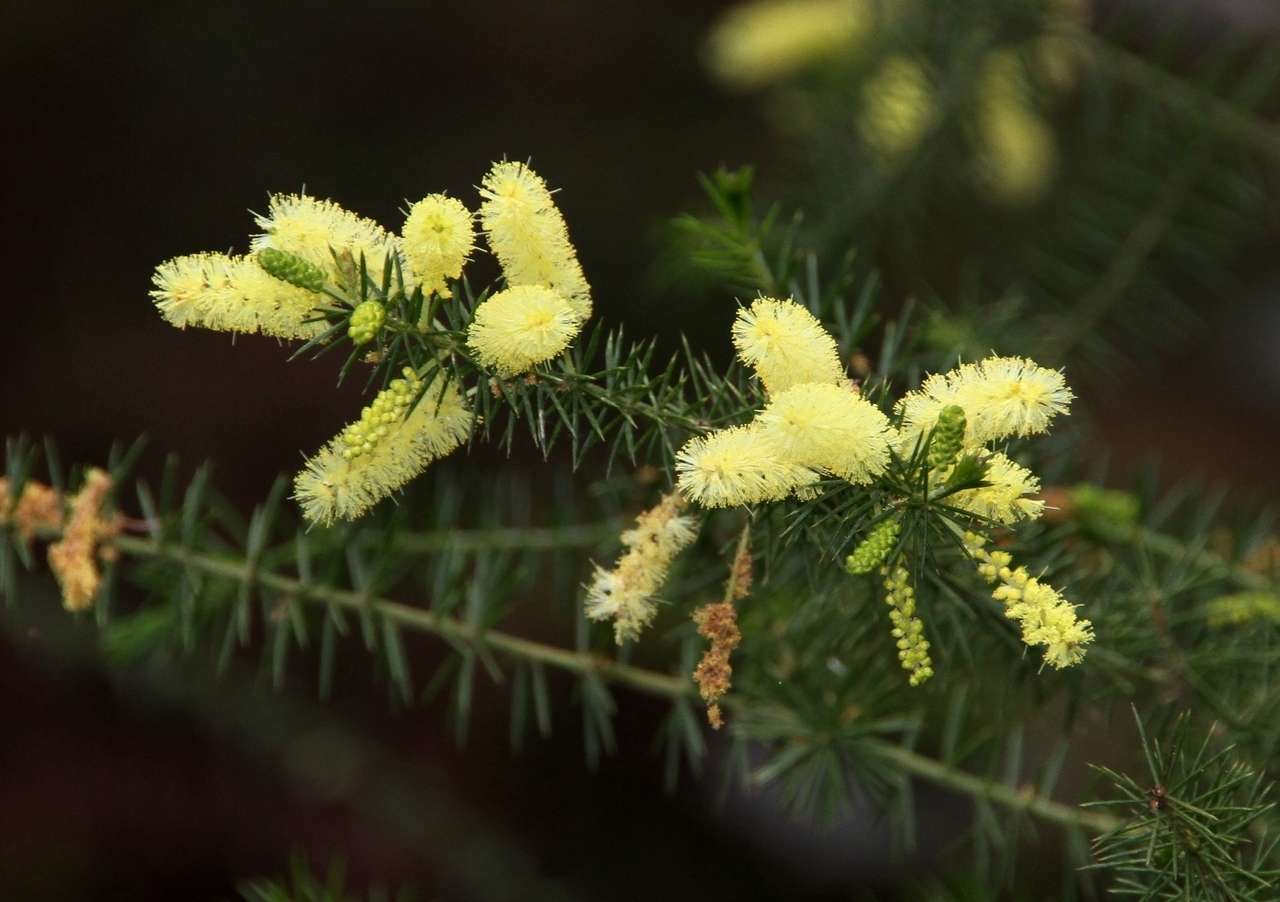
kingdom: Plantae
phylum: Tracheophyta
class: Magnoliopsida
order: Fabales
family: Fabaceae
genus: Acacia
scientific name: Acacia verticillata
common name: Prickly moses
